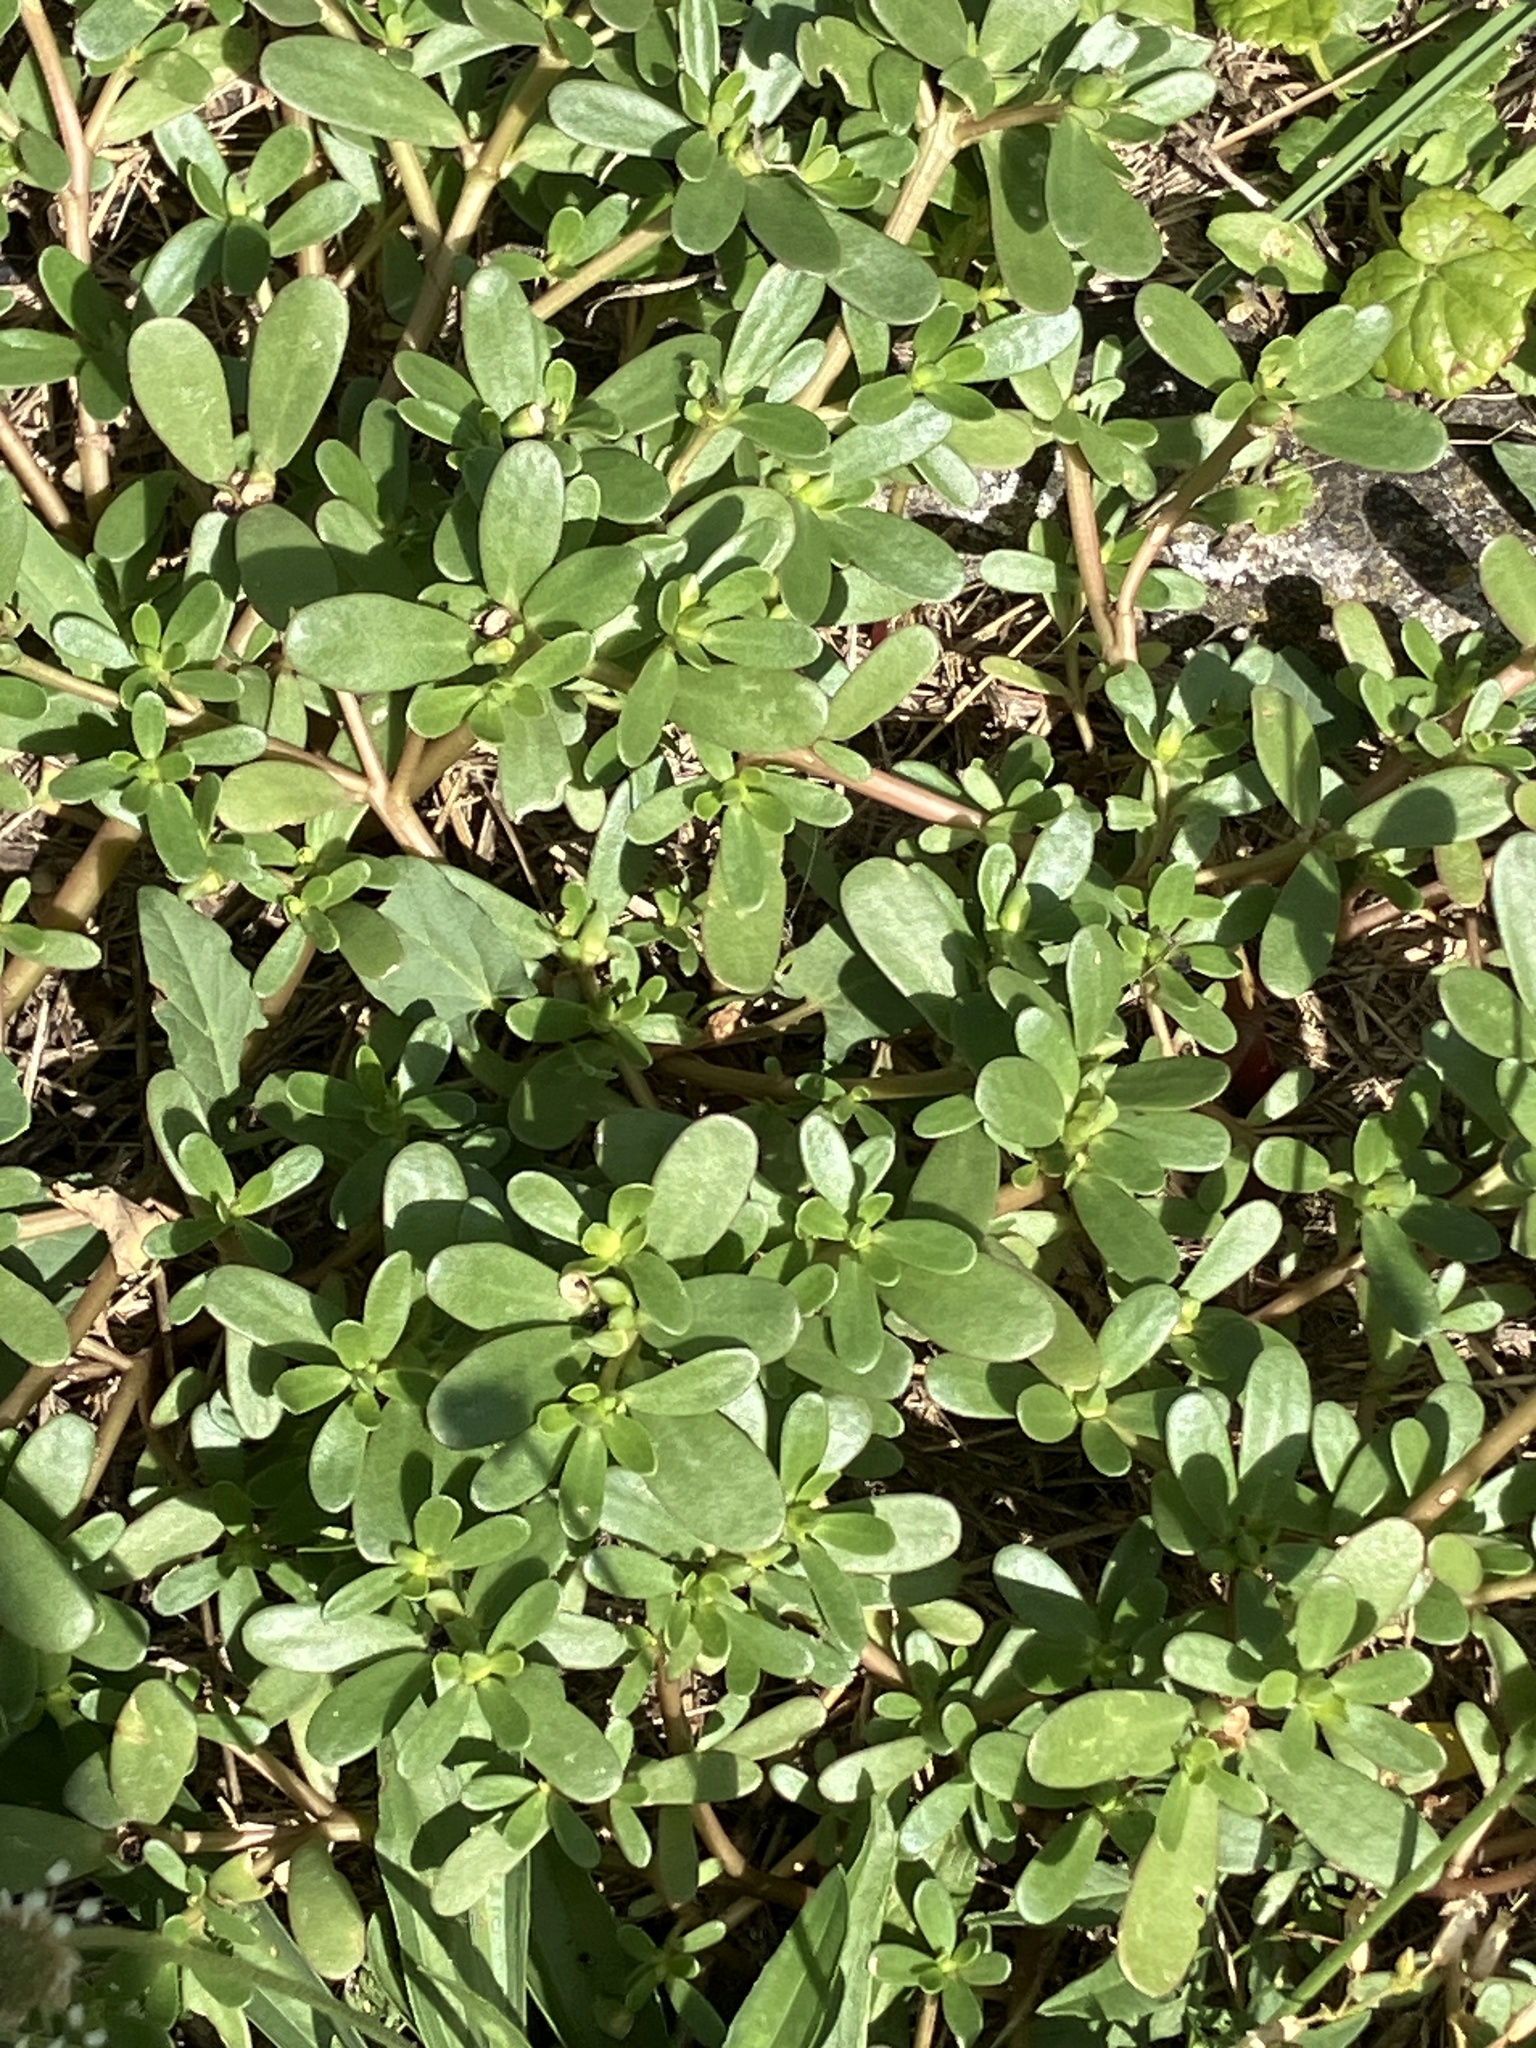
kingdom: Plantae
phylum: Tracheophyta
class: Magnoliopsida
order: Caryophyllales
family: Portulacaceae
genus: Portulaca
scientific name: Portulaca oleracea
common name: Common purslane
